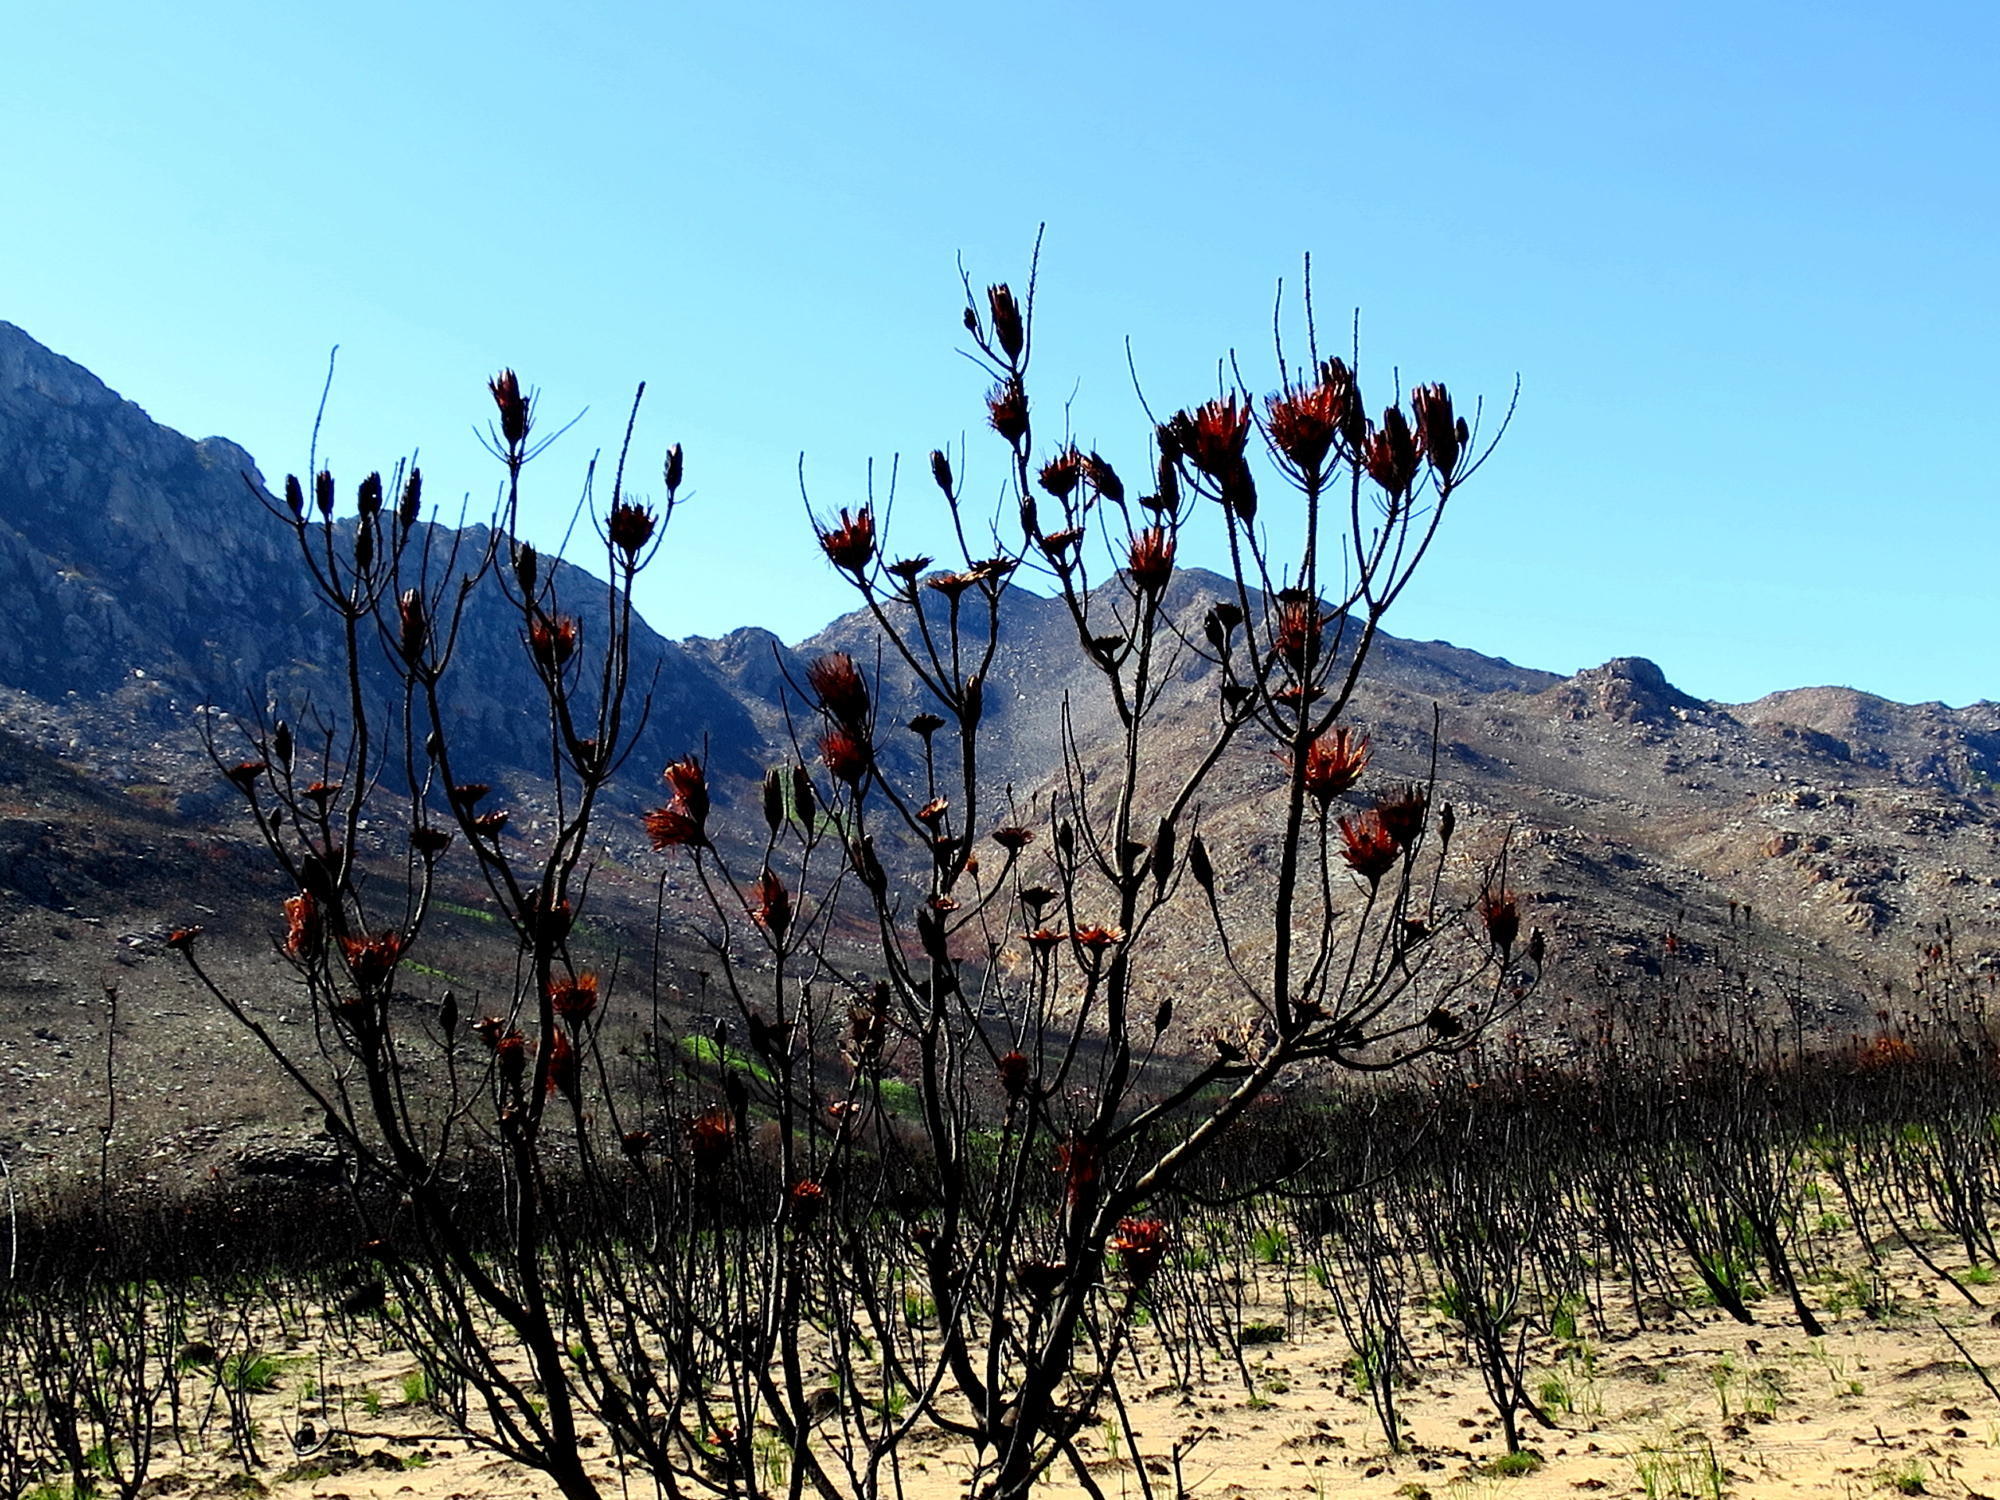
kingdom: Plantae
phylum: Tracheophyta
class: Magnoliopsida
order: Proteales
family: Proteaceae
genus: Protea
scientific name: Protea repens
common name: Sugarbush
